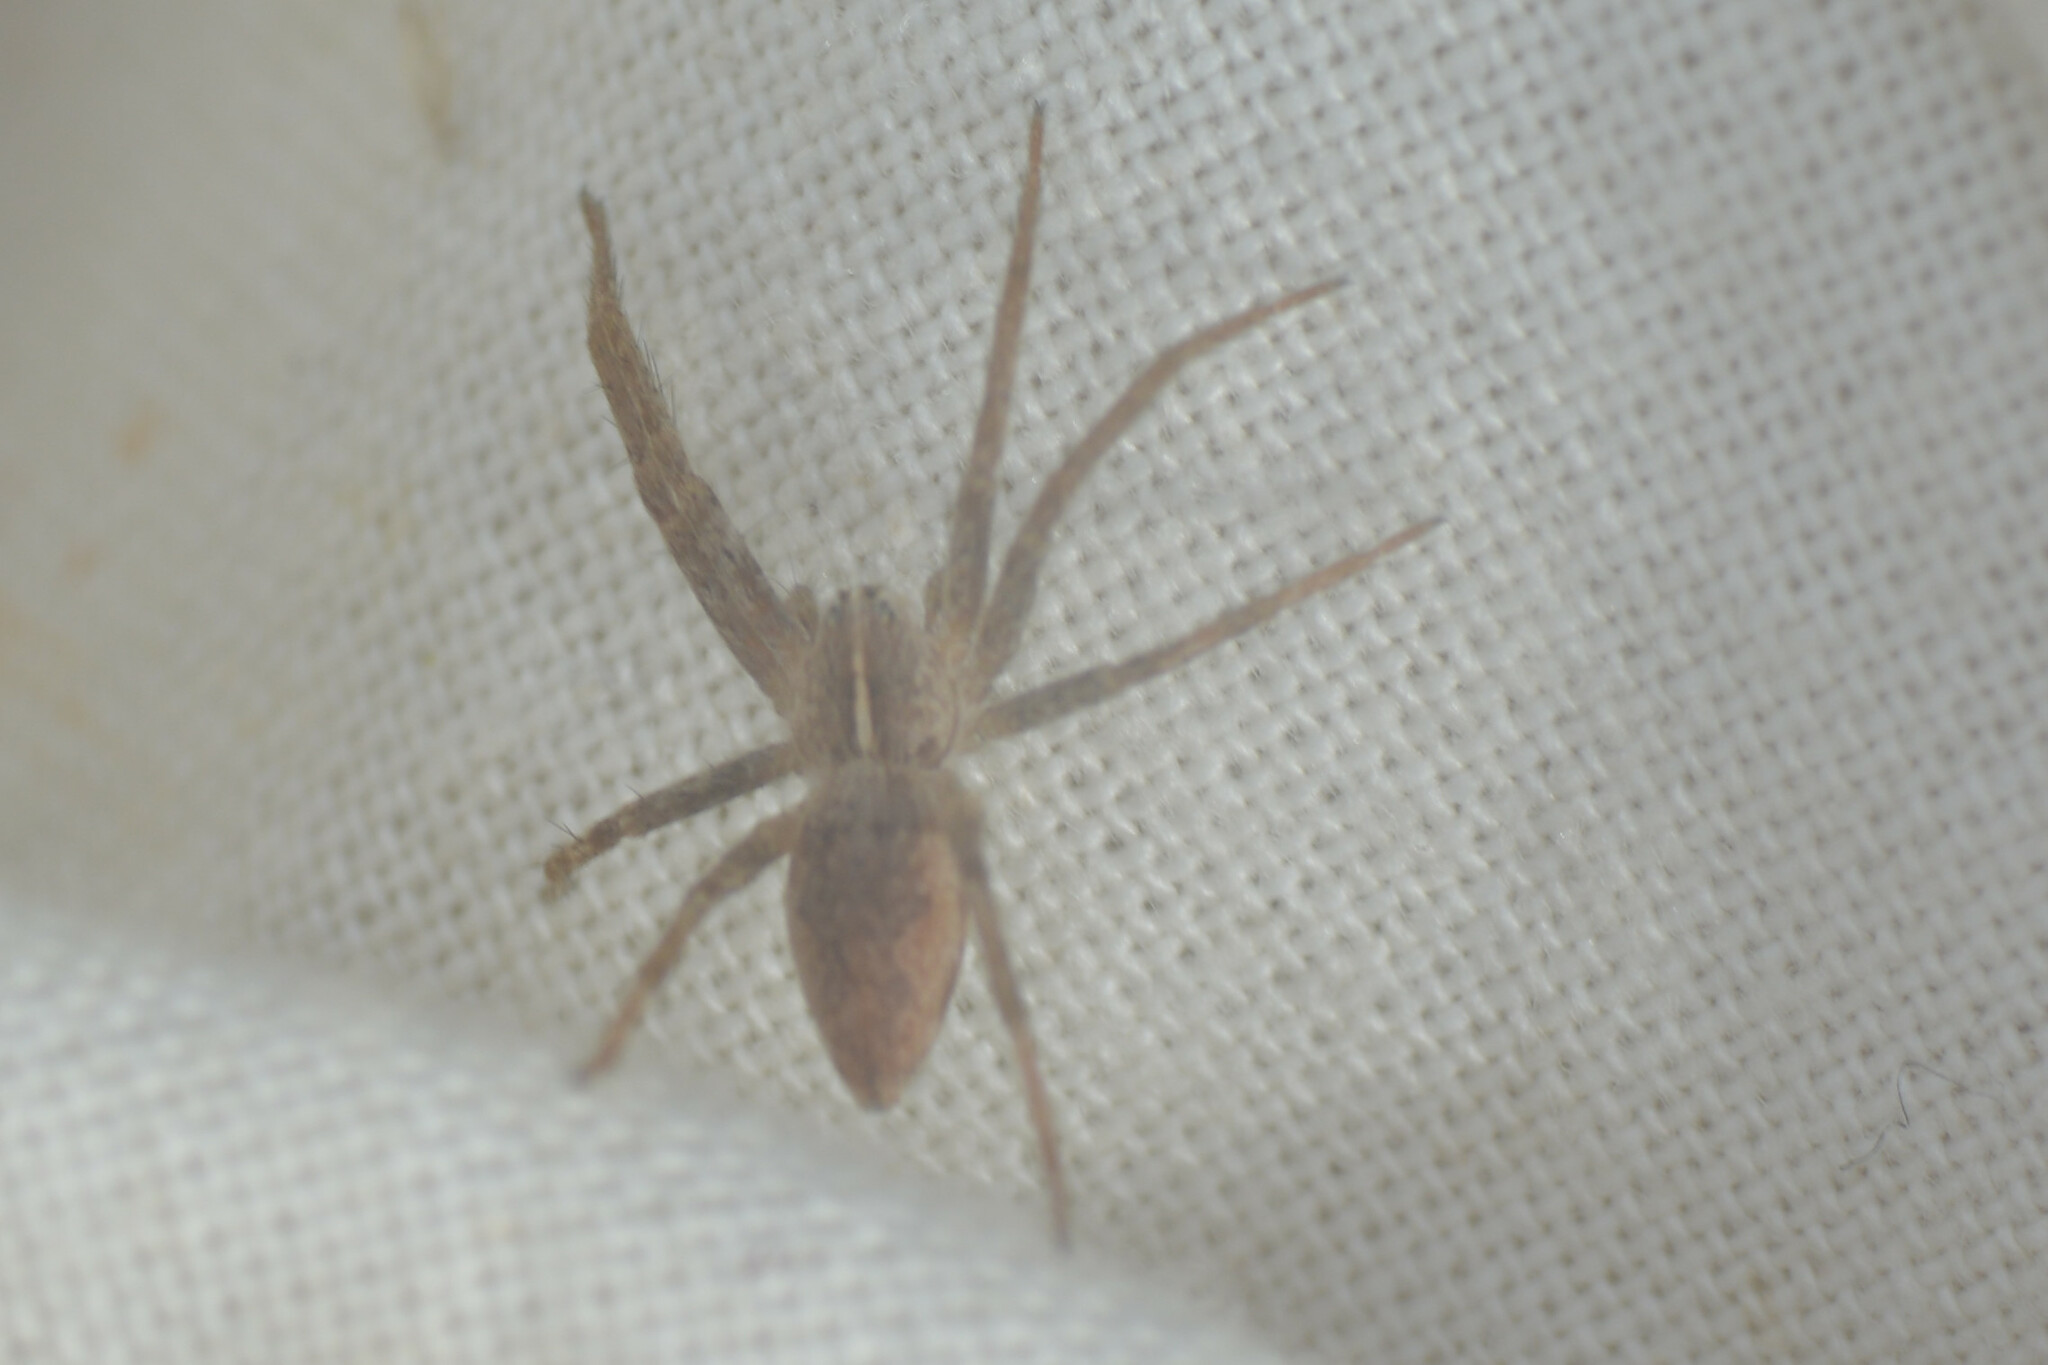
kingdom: Animalia
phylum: Arthropoda
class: Arachnida
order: Araneae
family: Pisauridae
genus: Pisaura
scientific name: Pisaura mirabilis
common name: Tent spider
